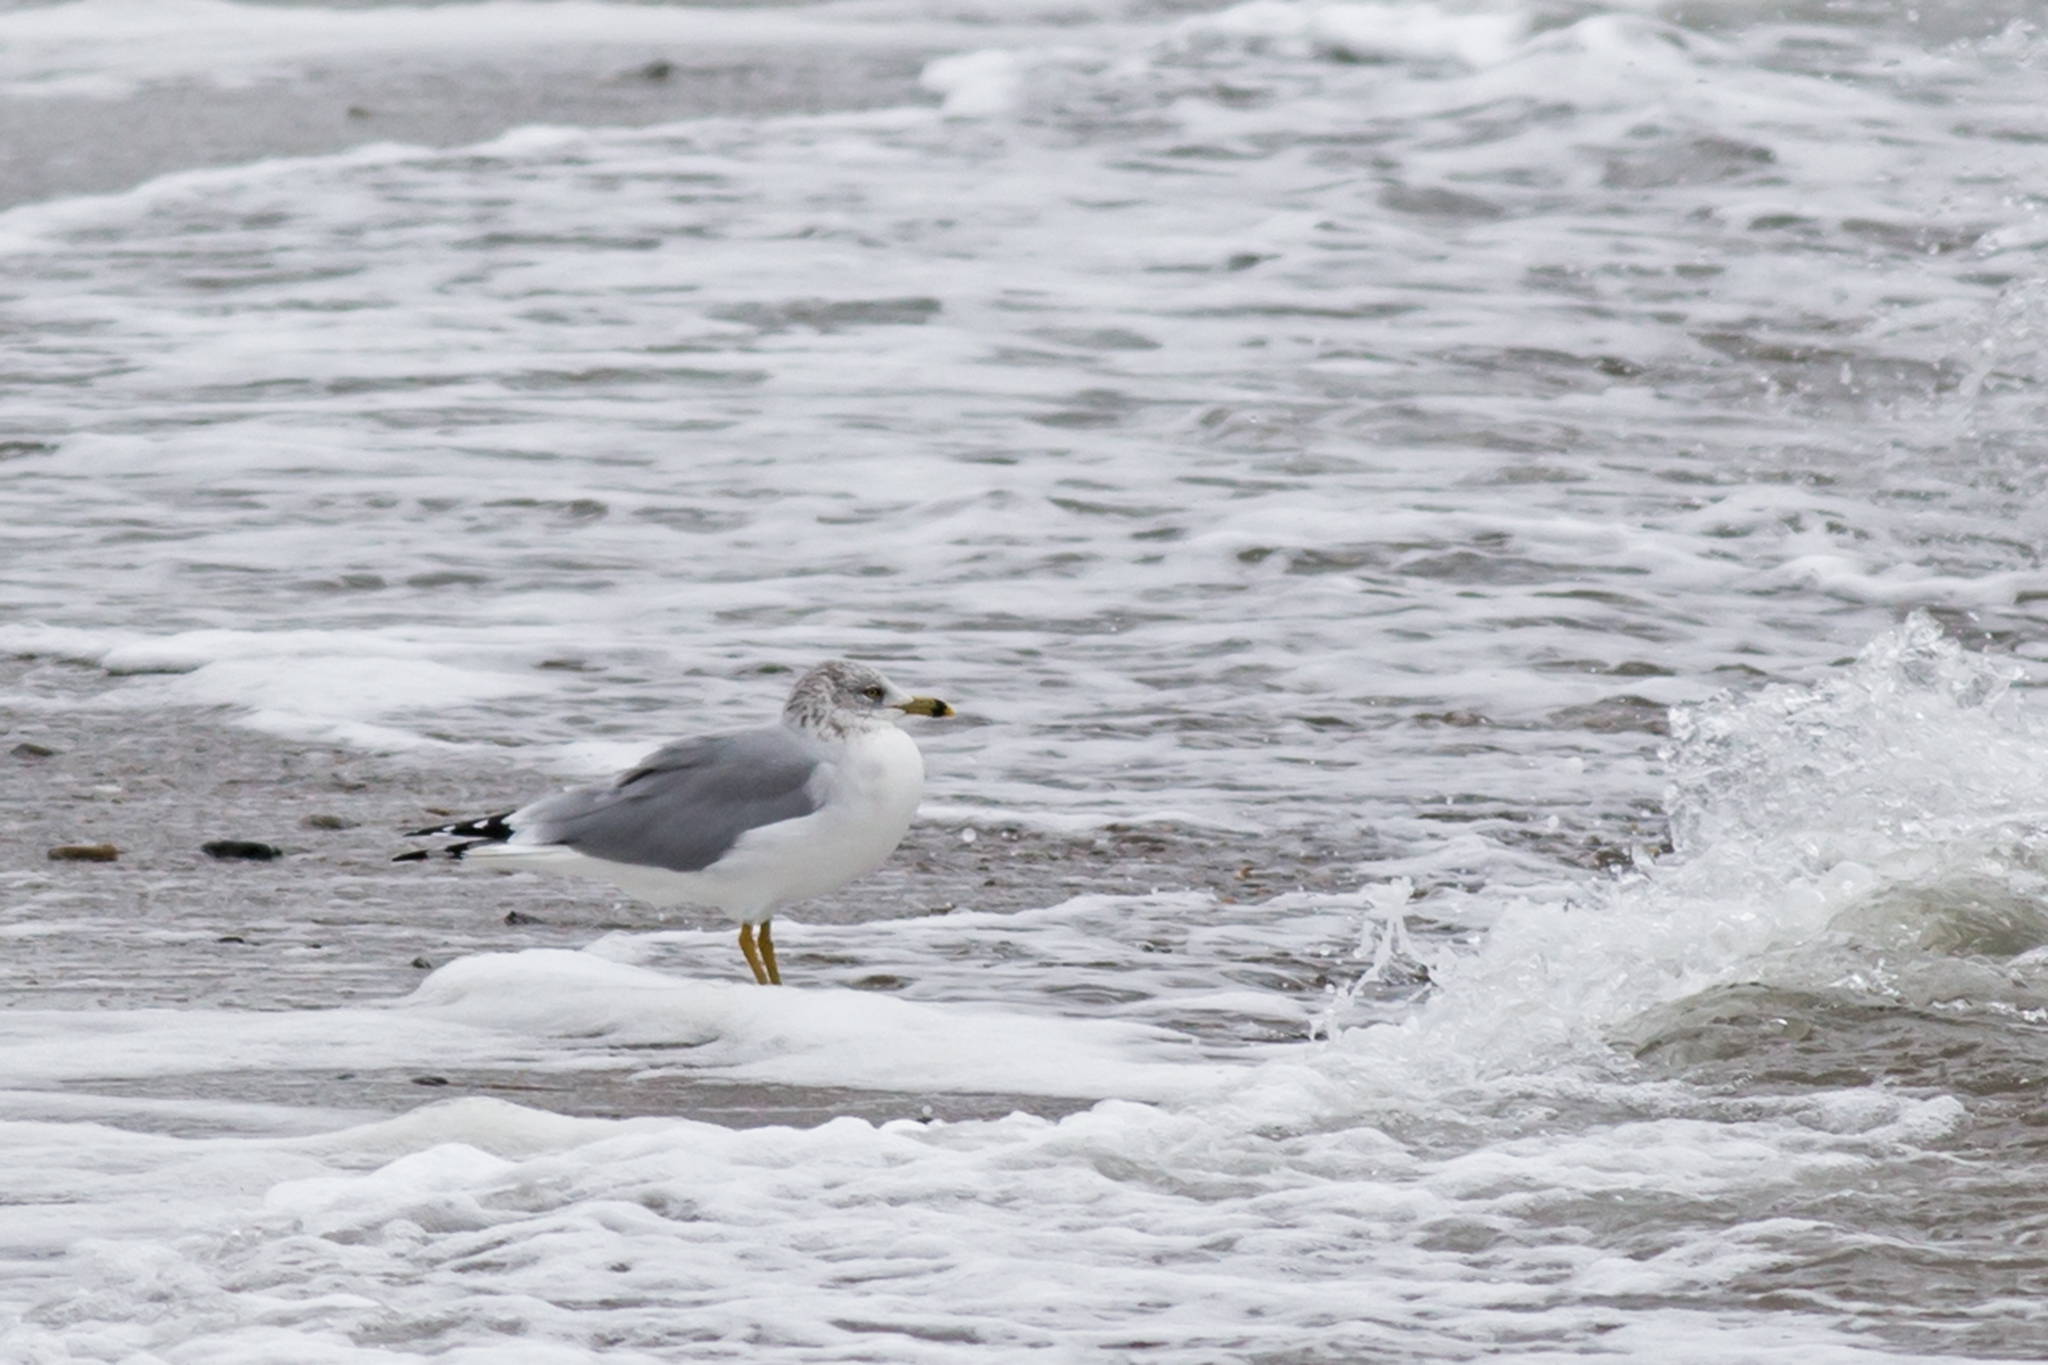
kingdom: Animalia
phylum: Chordata
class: Aves
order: Charadriiformes
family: Laridae
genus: Larus
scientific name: Larus delawarensis
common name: Ring-billed gull
